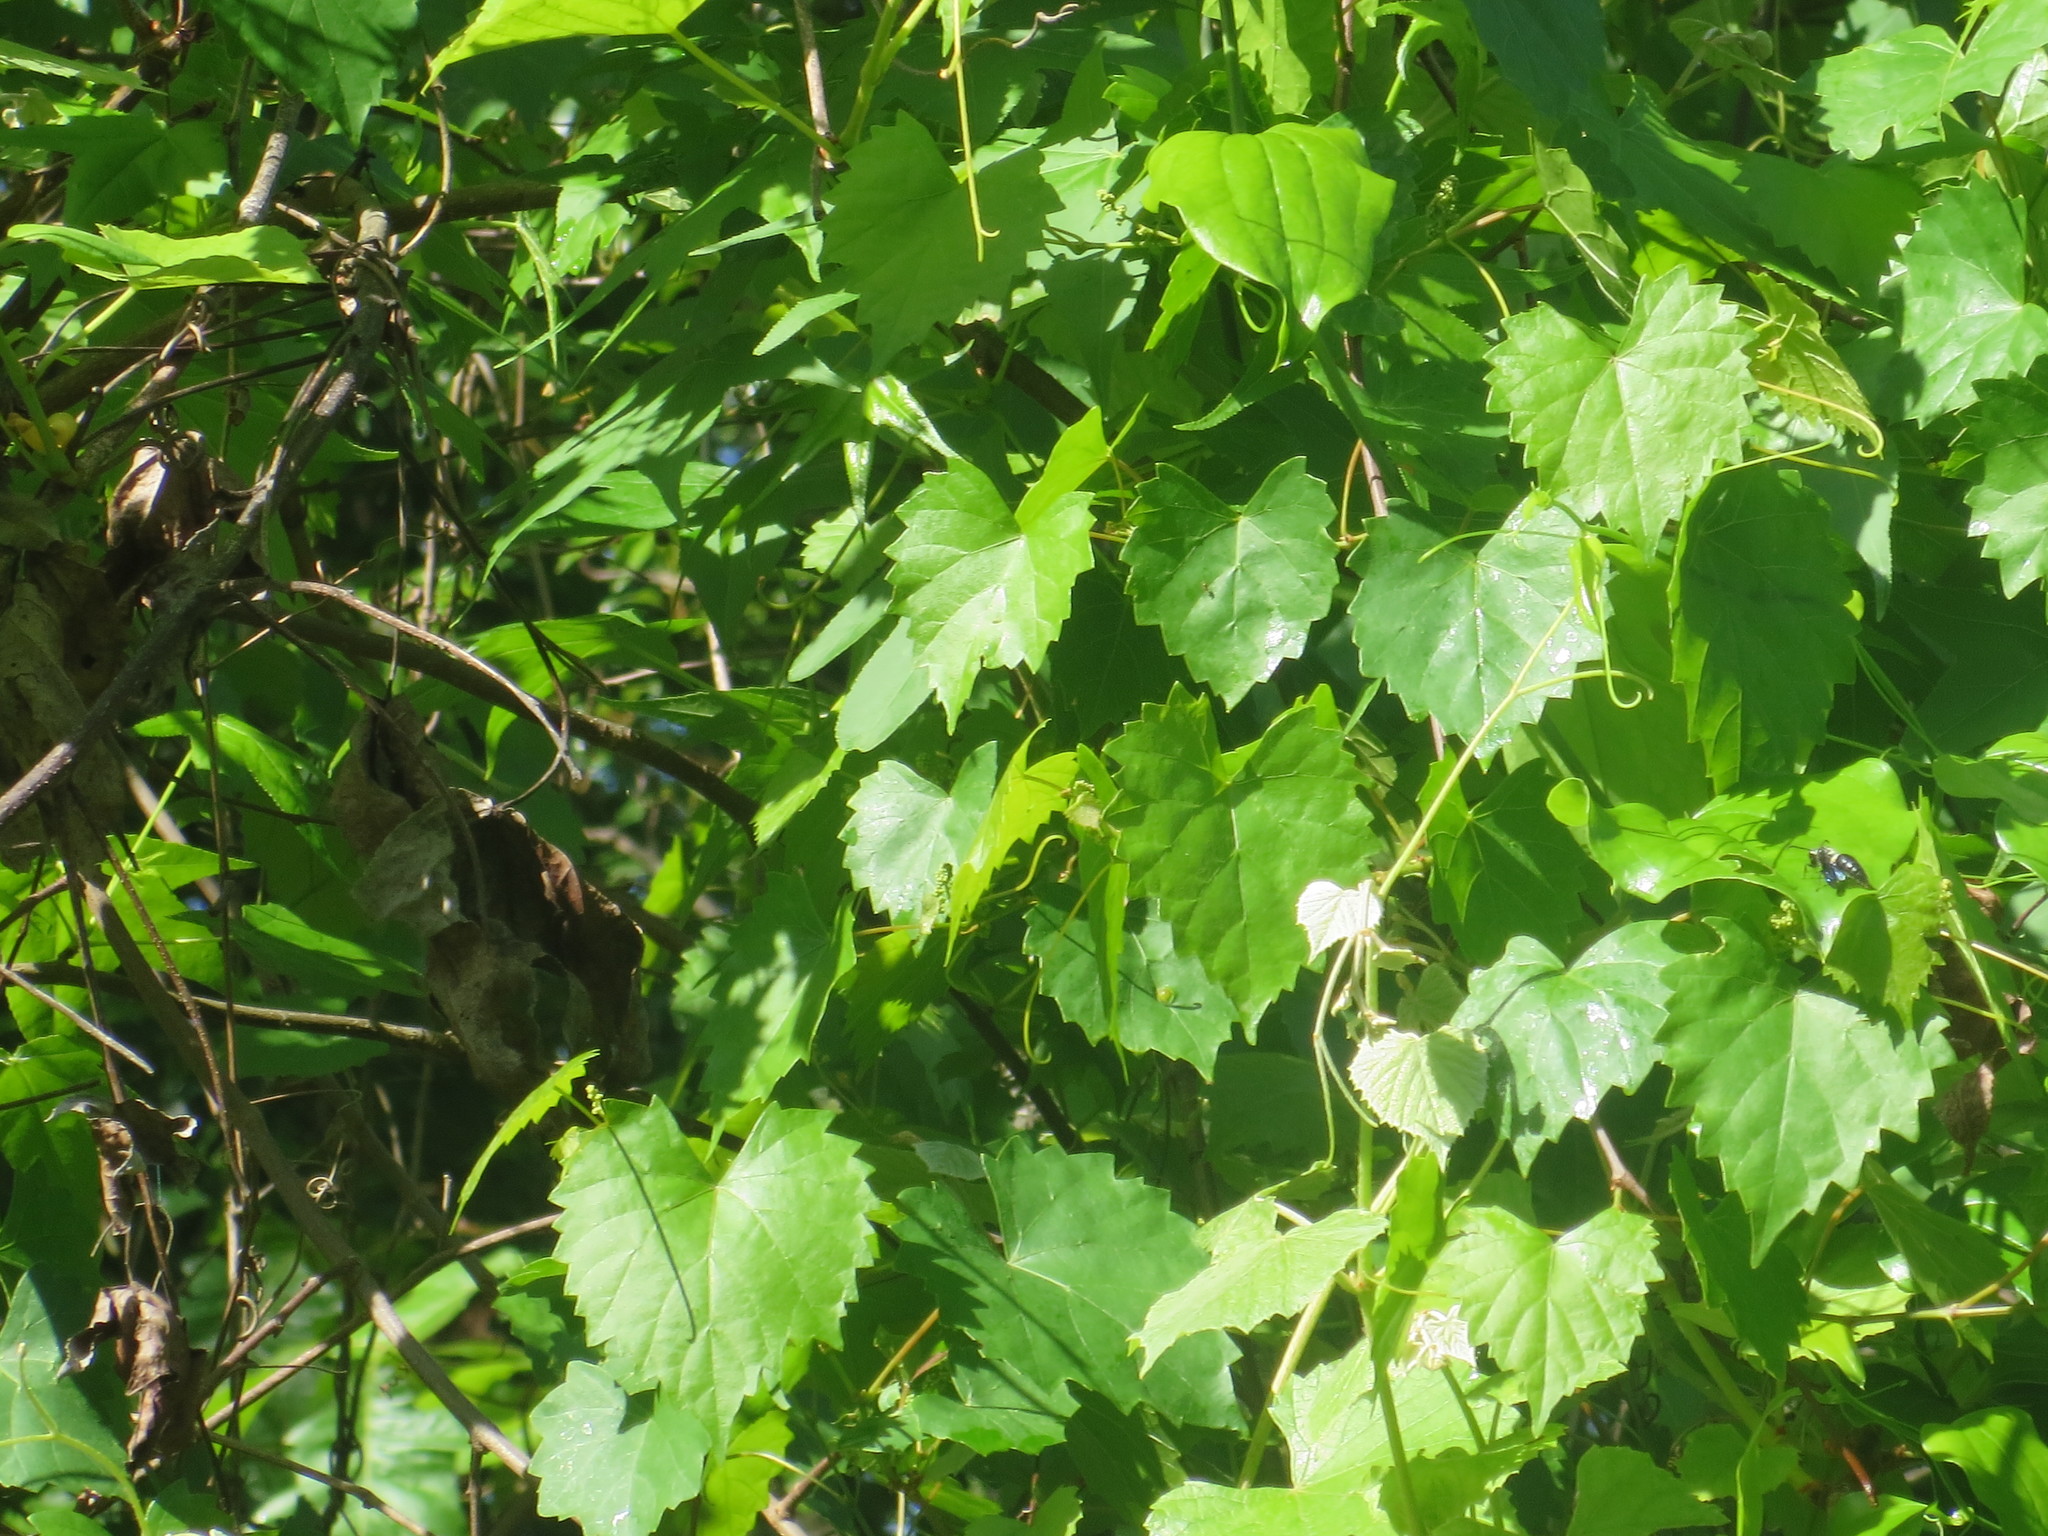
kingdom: Plantae
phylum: Tracheophyta
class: Magnoliopsida
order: Vitales
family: Vitaceae
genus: Vitis
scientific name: Vitis rotundifolia
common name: Muscadine grape
